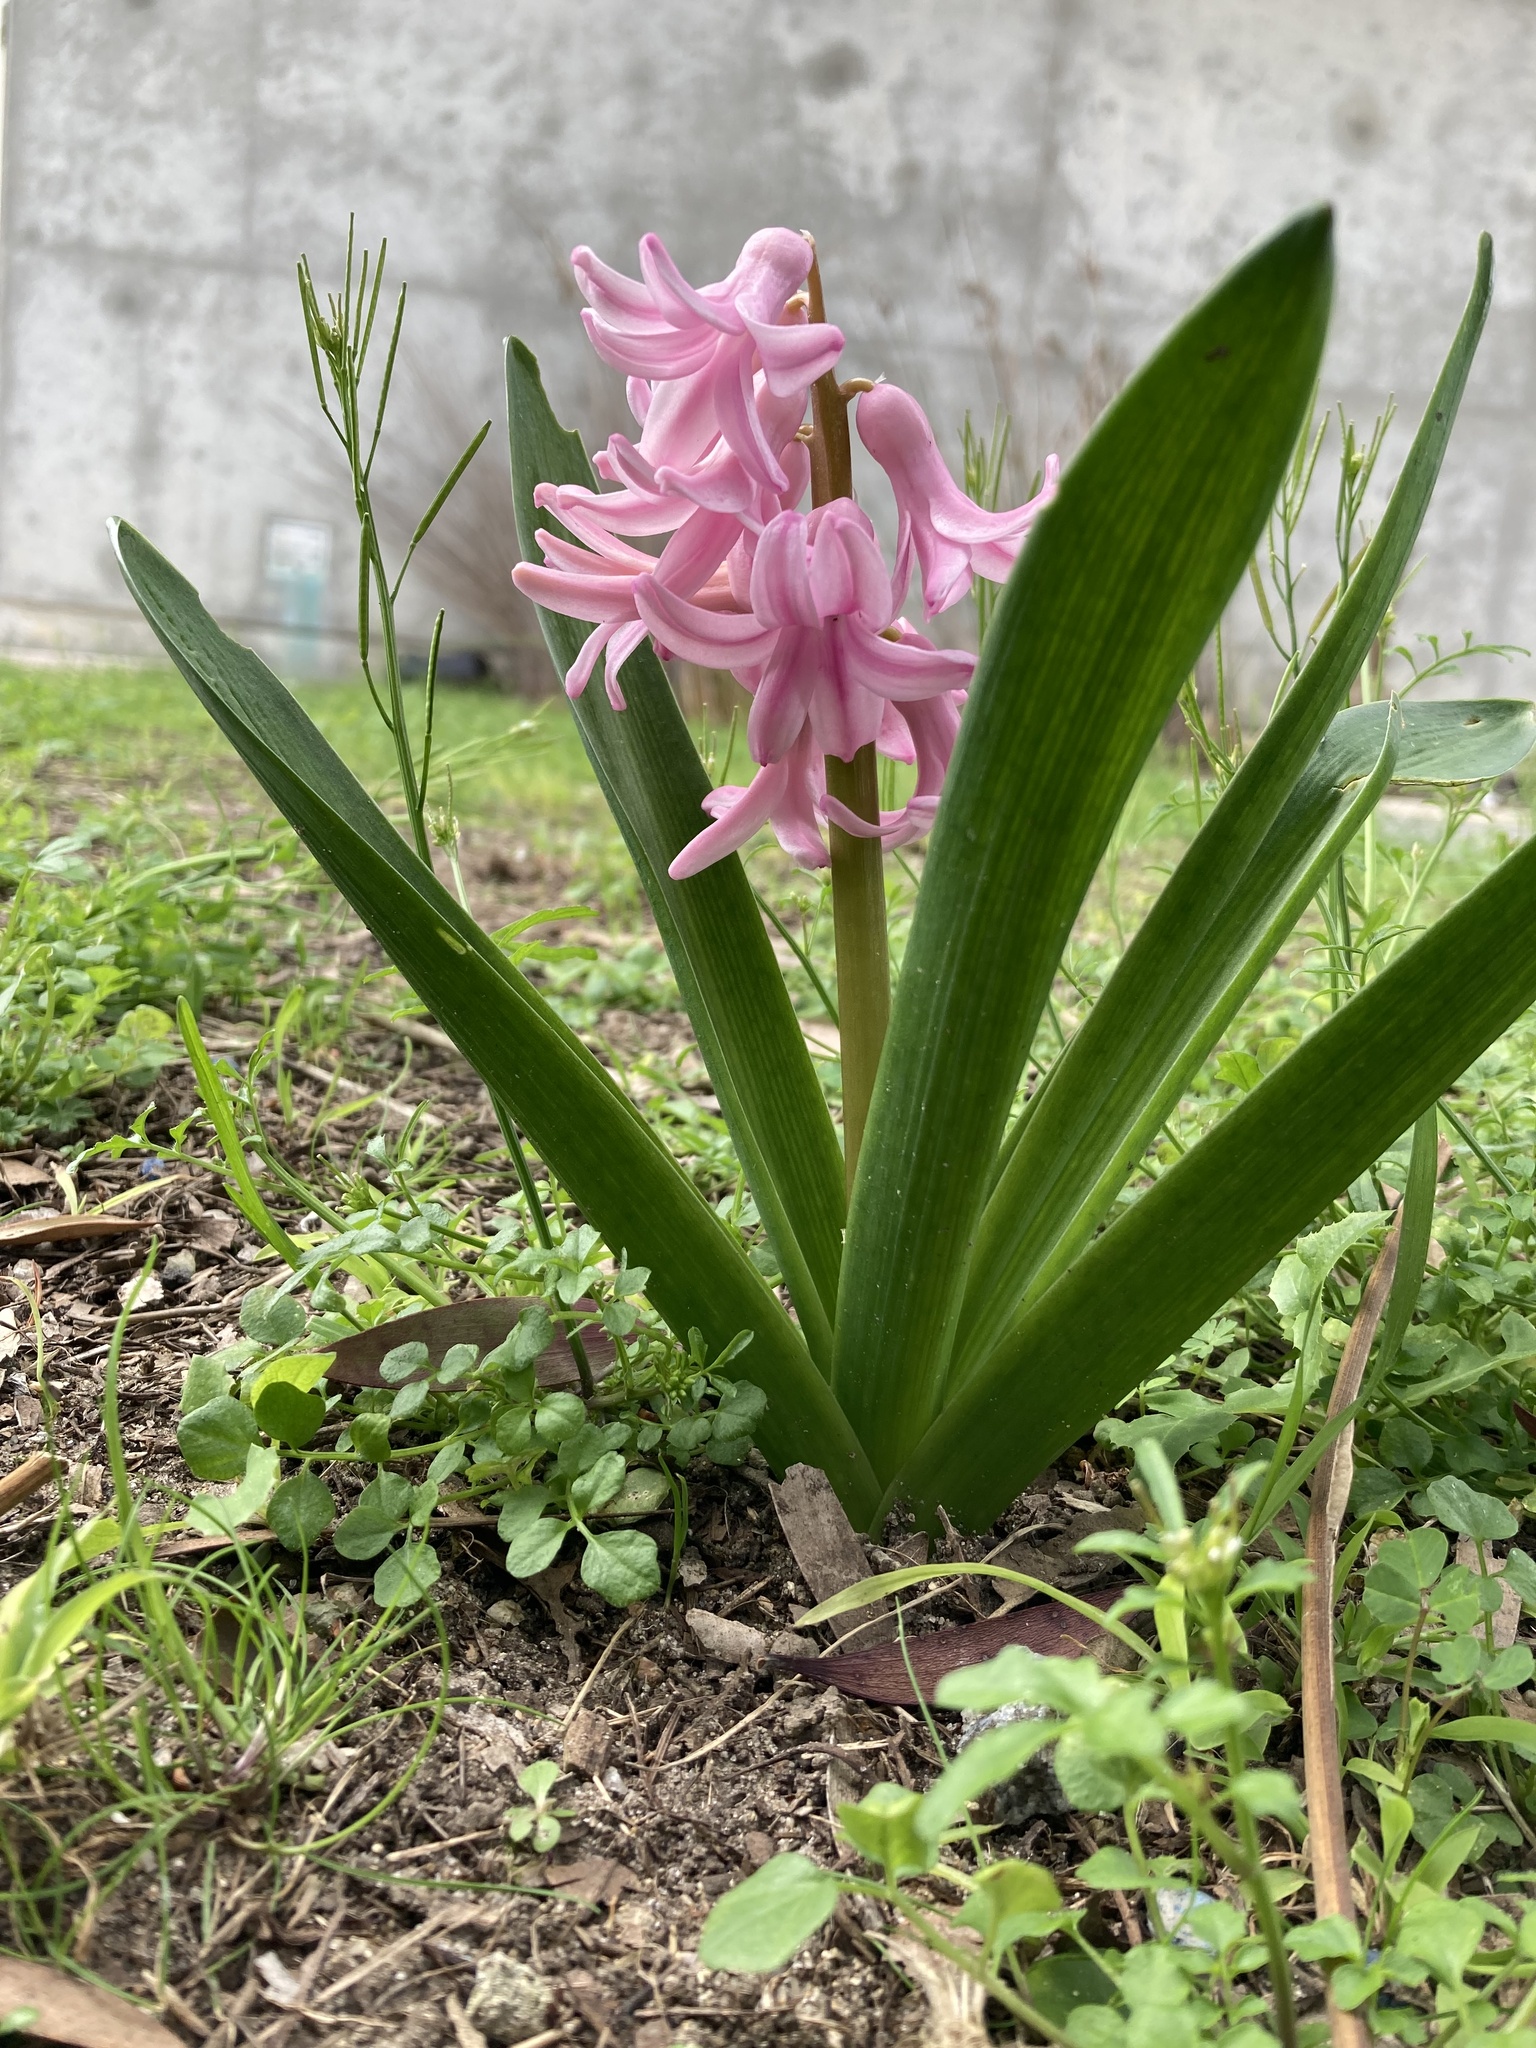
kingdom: Plantae
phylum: Tracheophyta
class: Liliopsida
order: Asparagales
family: Asparagaceae
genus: Hyacinthus
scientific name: Hyacinthus orientalis
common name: Hyacinth
